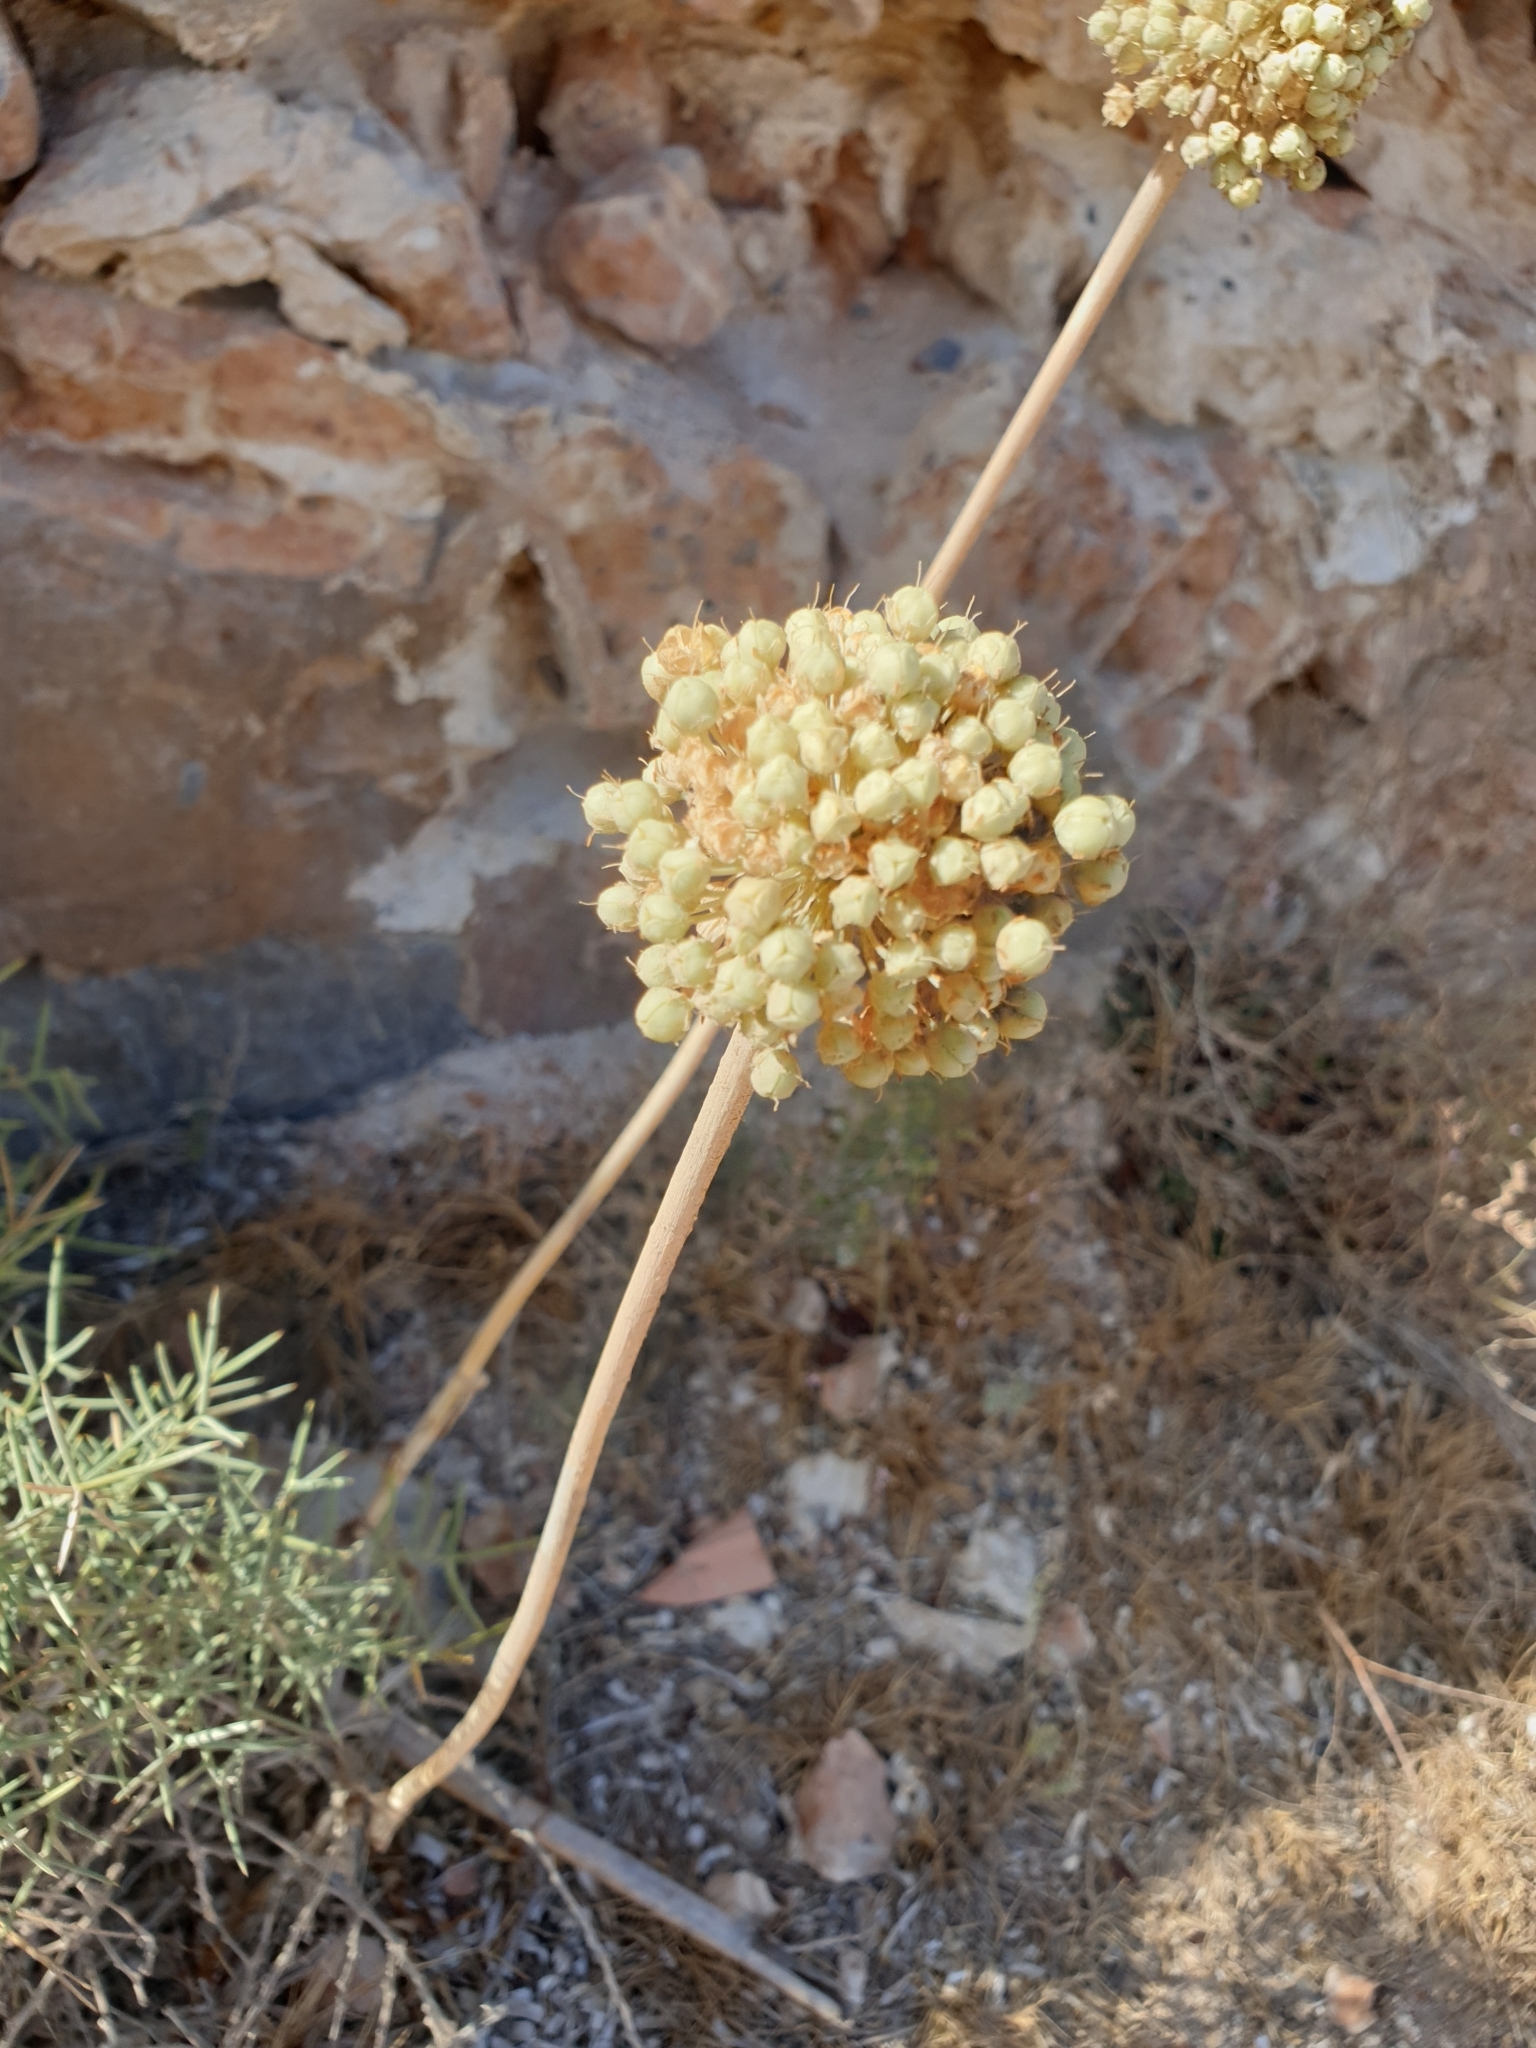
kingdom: Plantae
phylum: Tracheophyta
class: Liliopsida
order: Asparagales
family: Amaryllidaceae
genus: Allium
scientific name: Allium commutatum
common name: Sea garlic
